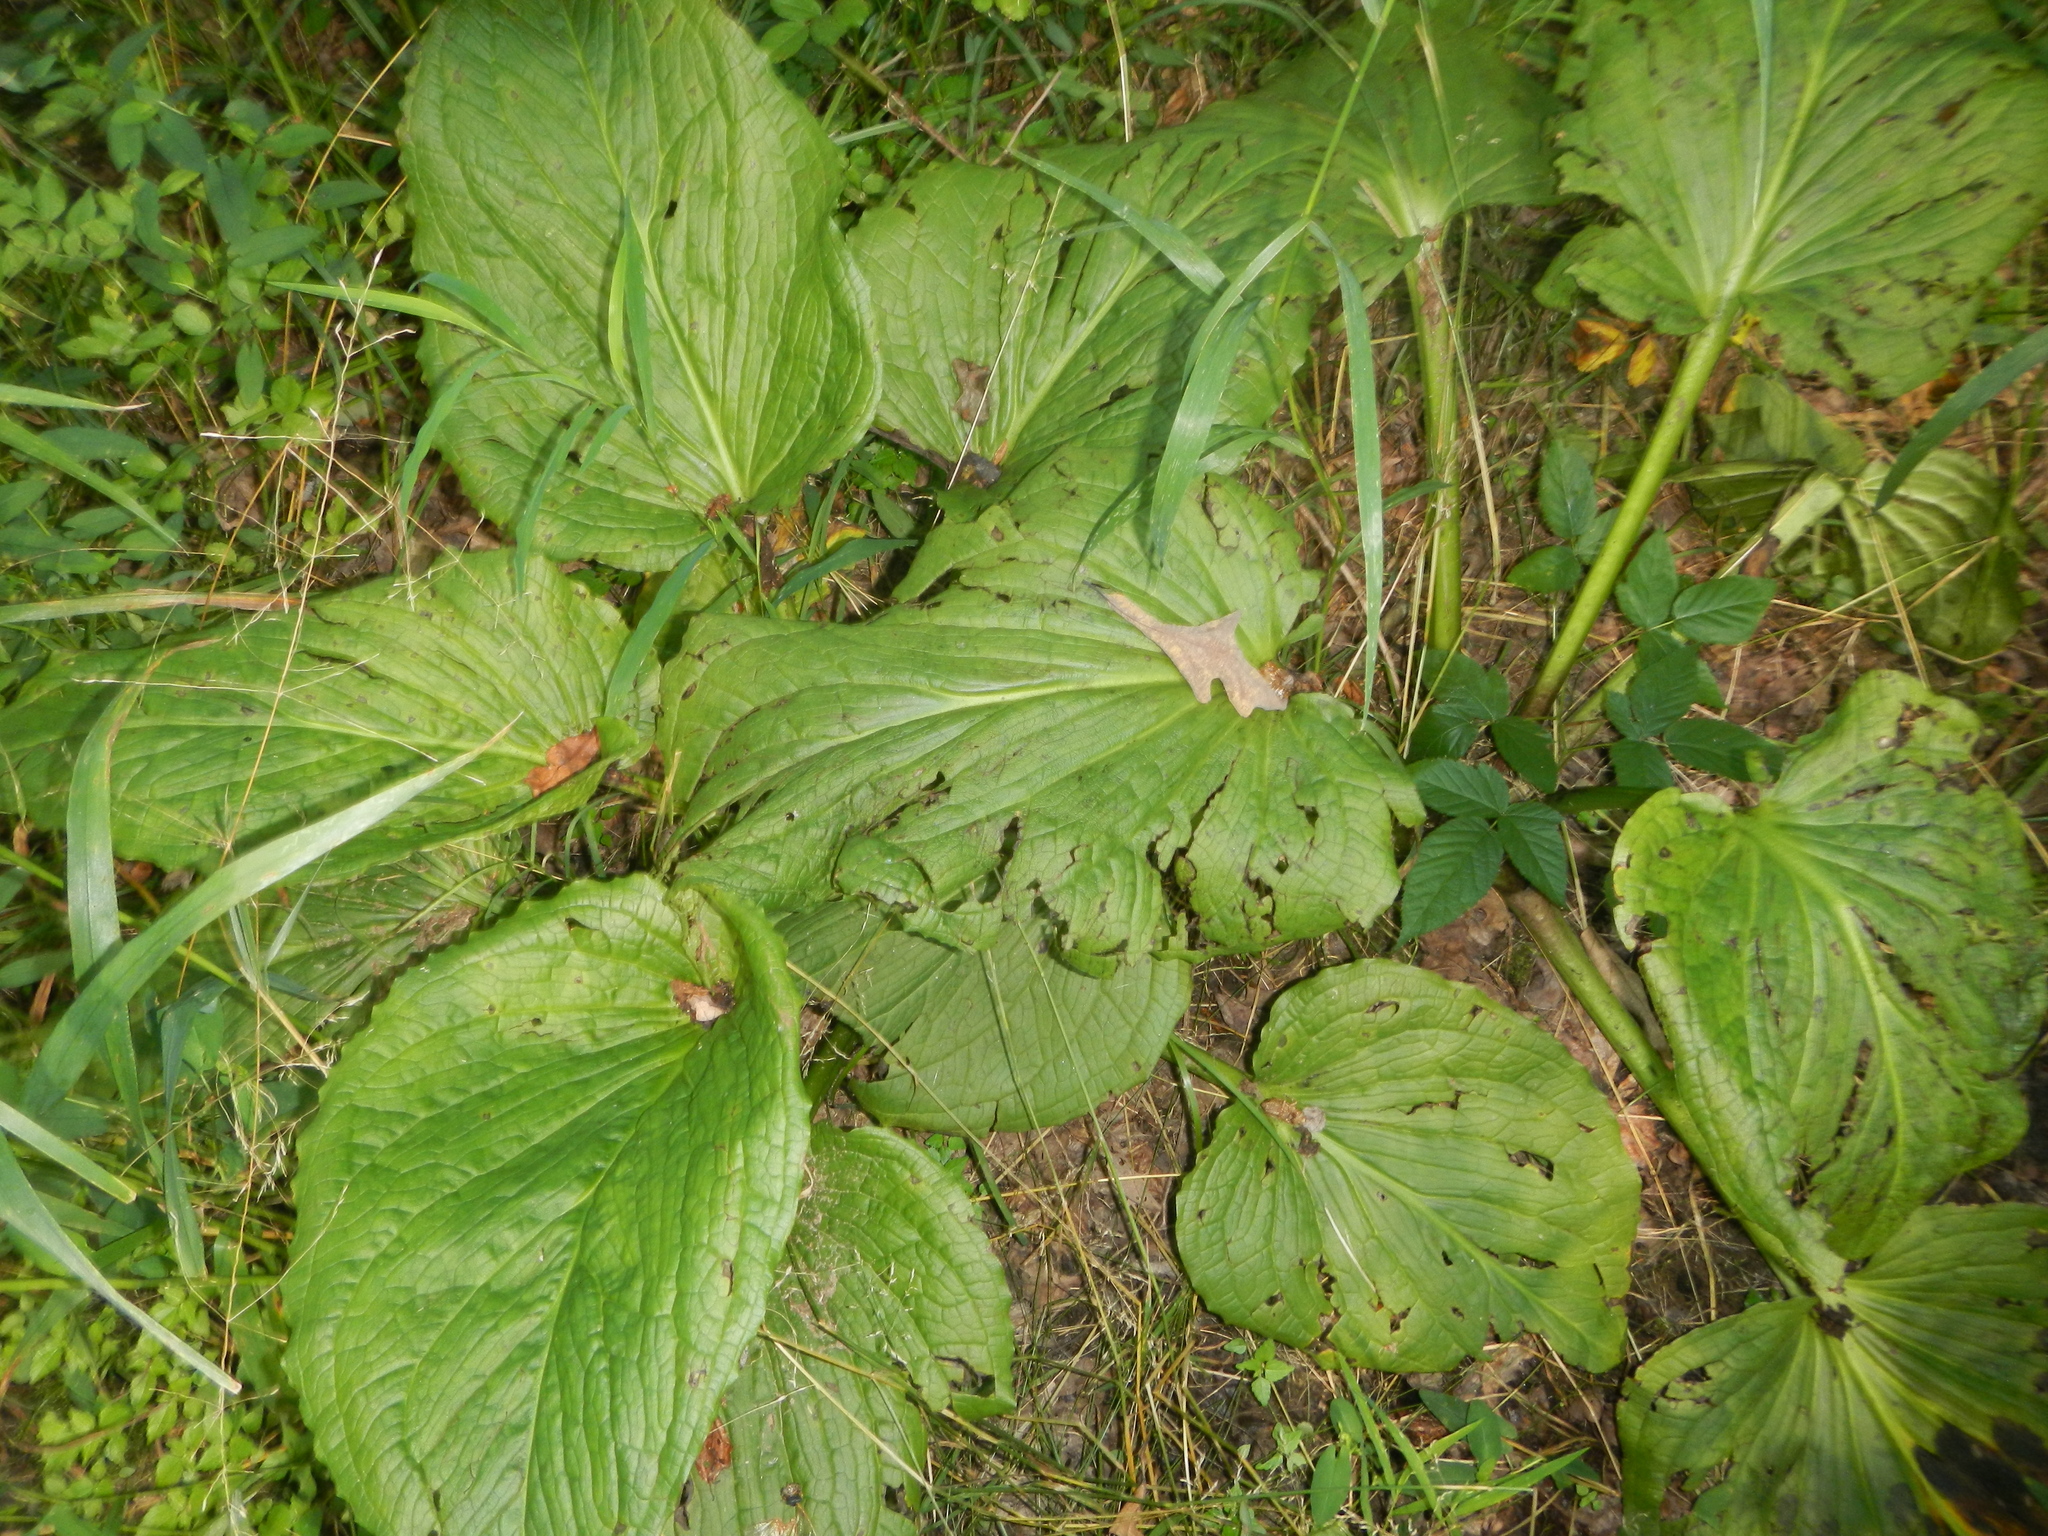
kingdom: Plantae
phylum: Tracheophyta
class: Liliopsida
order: Alismatales
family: Araceae
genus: Symplocarpus
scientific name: Symplocarpus foetidus
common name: Eastern skunk cabbage
